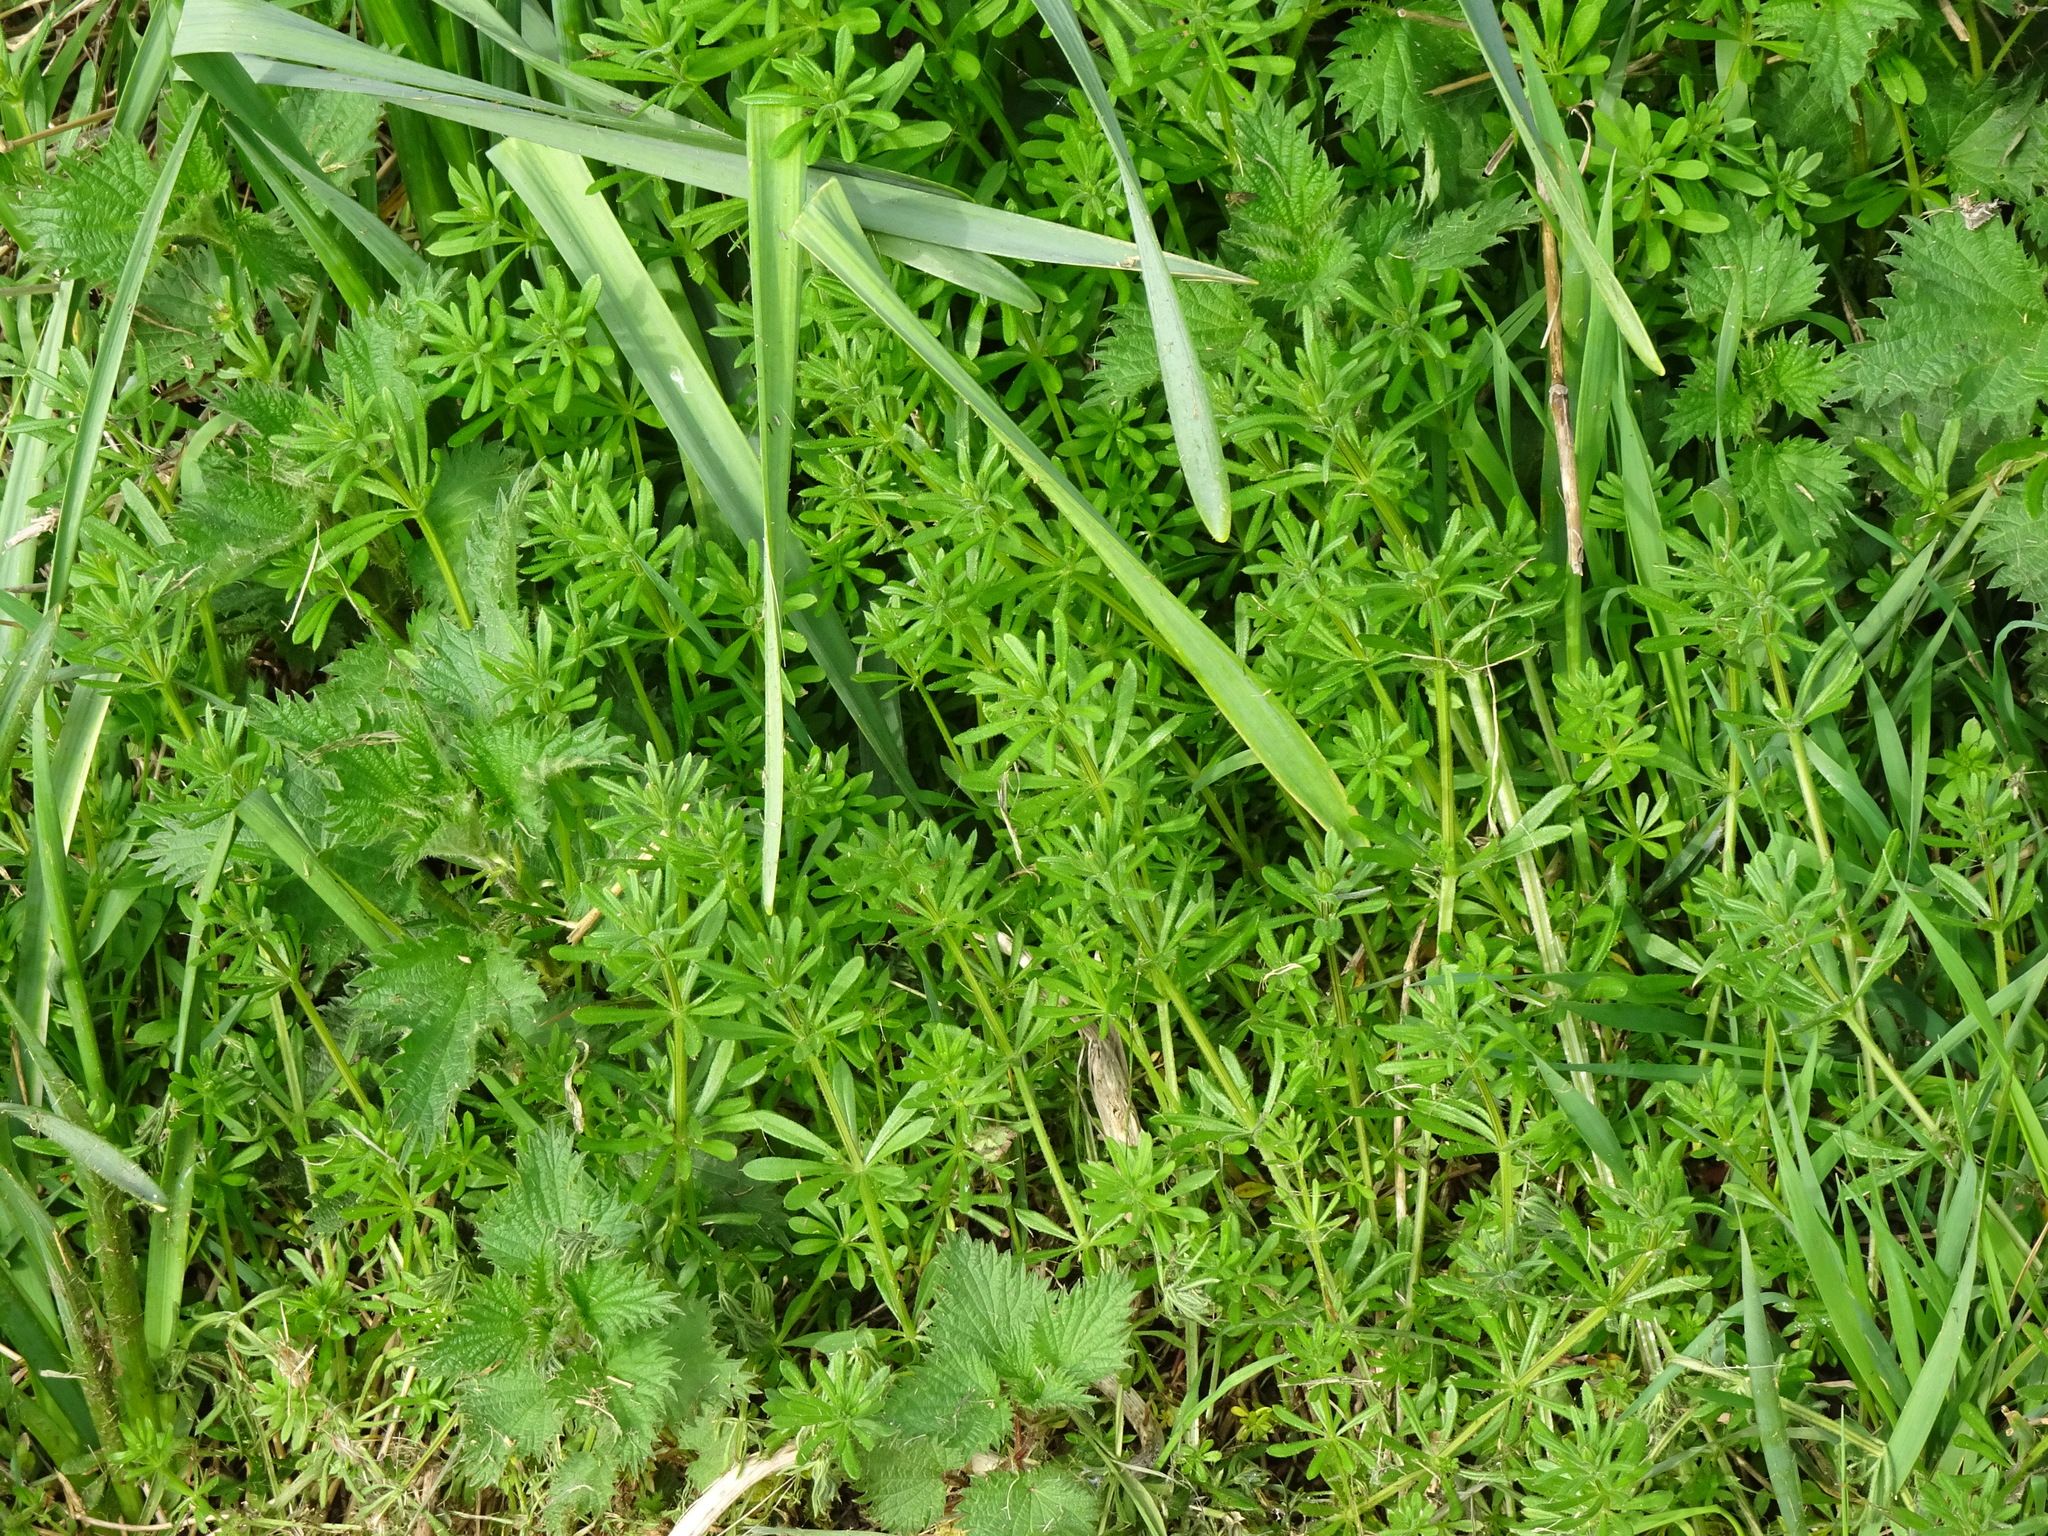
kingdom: Plantae
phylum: Tracheophyta
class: Magnoliopsida
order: Gentianales
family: Rubiaceae
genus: Galium
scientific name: Galium aparine
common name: Cleavers
